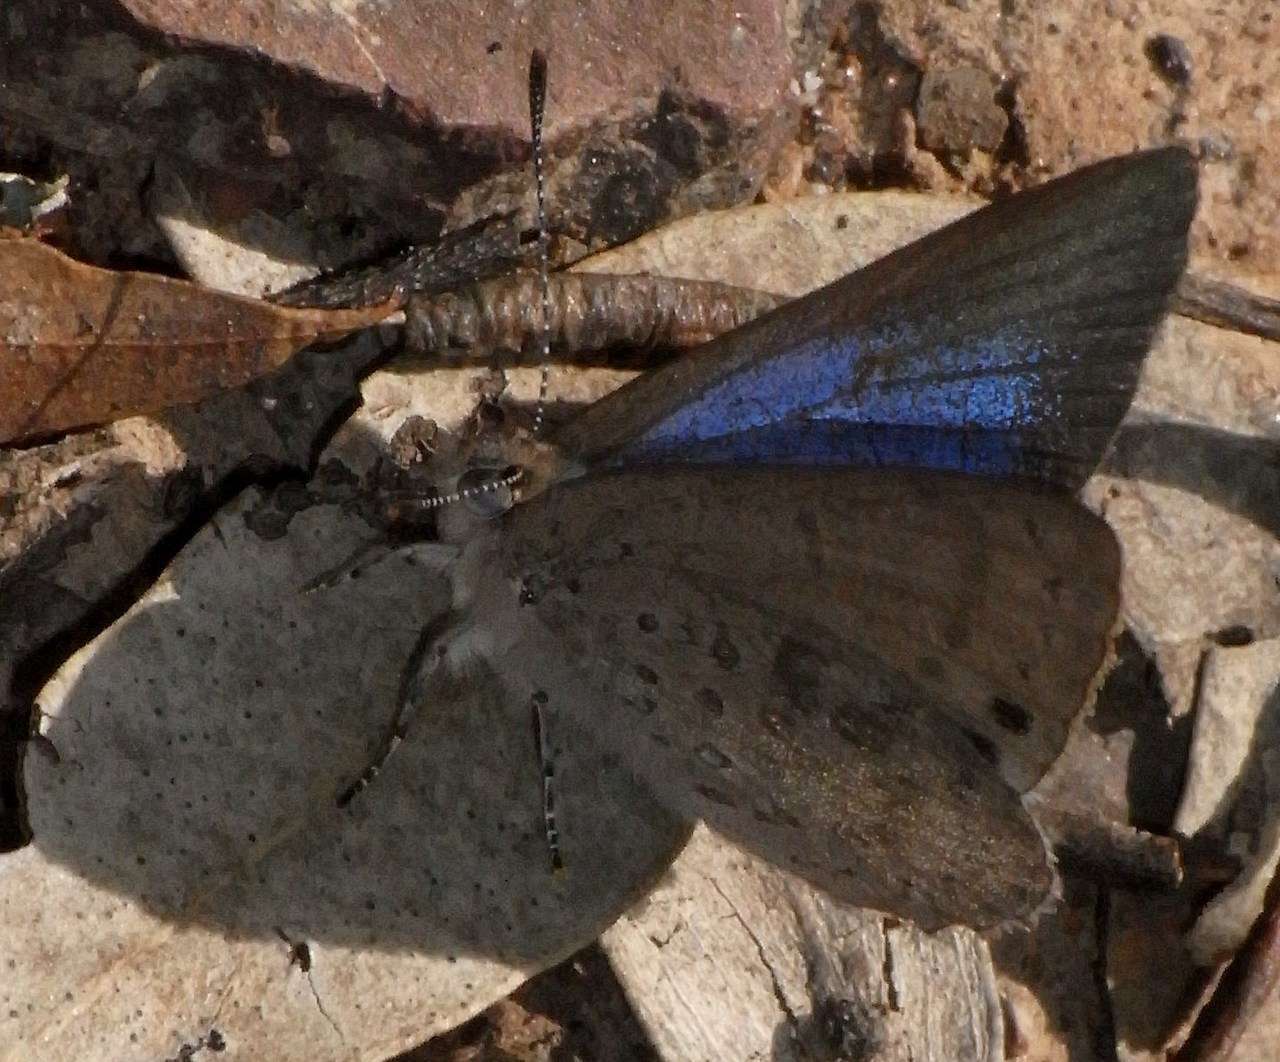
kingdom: Animalia
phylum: Arthropoda
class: Insecta
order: Lepidoptera
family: Lycaenidae
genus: Candalides
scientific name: Candalides
